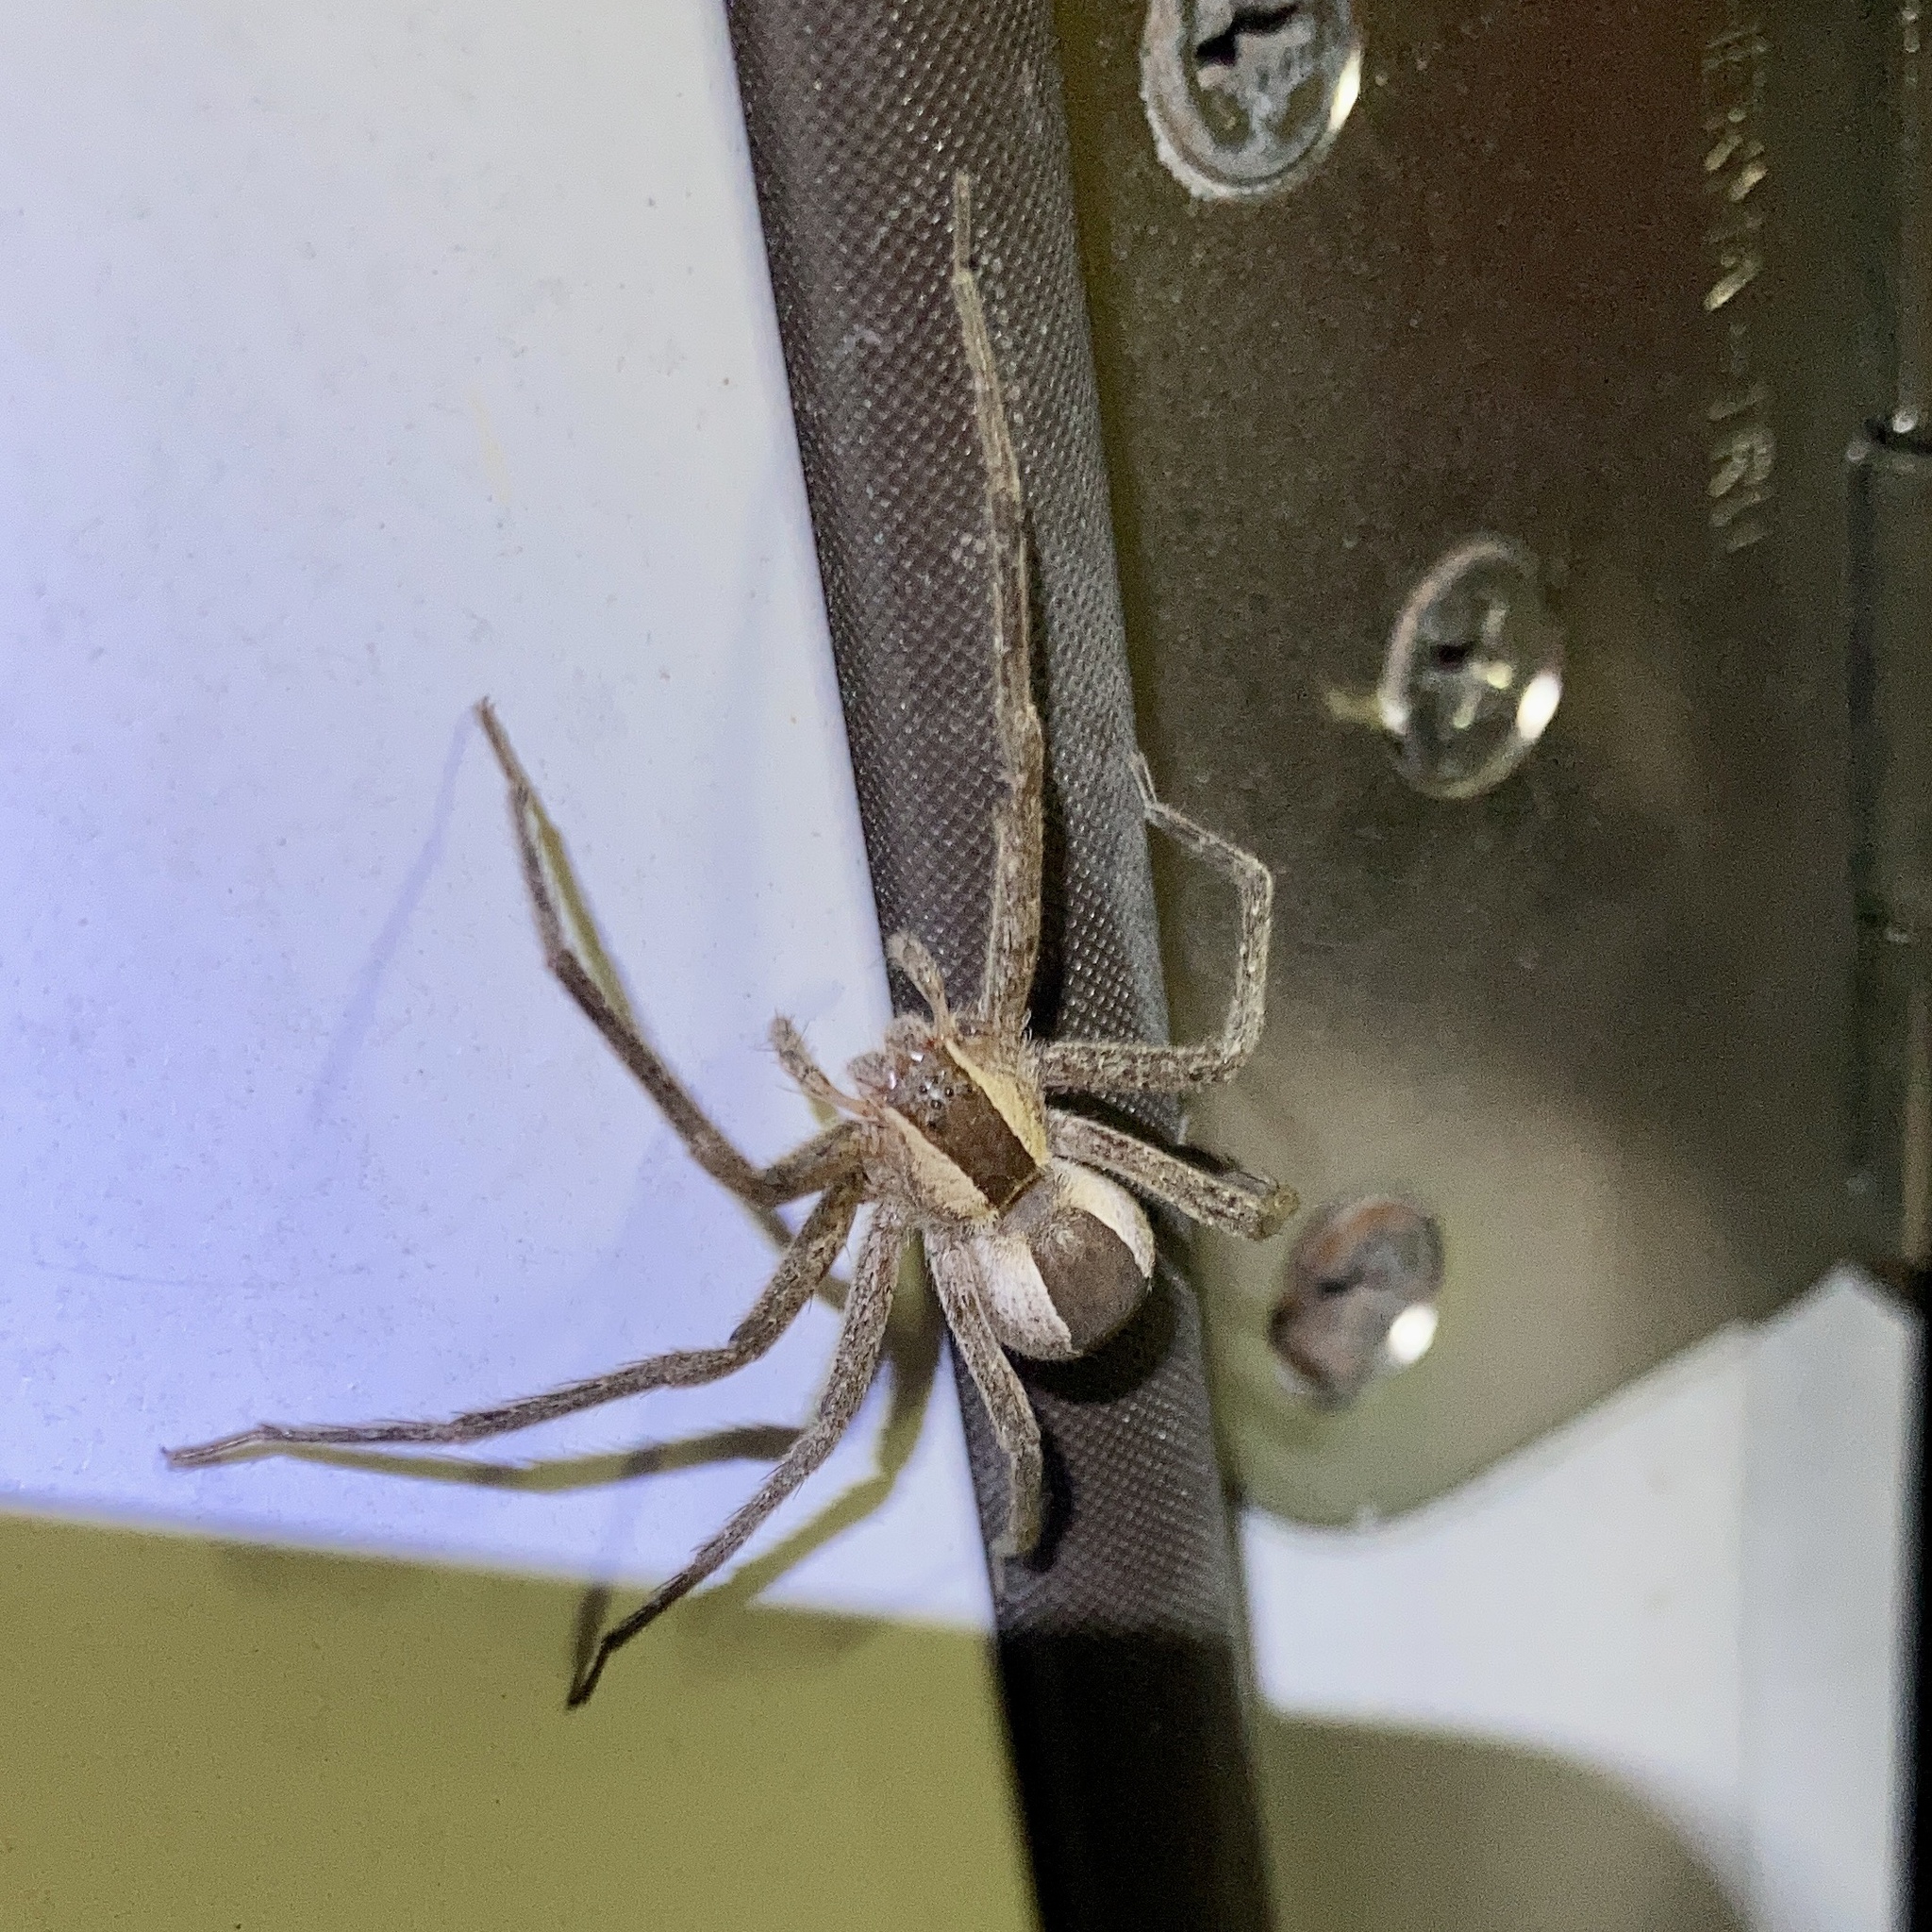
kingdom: Animalia
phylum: Arthropoda
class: Arachnida
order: Araneae
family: Pisauridae
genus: Pisaurina
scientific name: Pisaurina mira
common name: American nursery web spider
